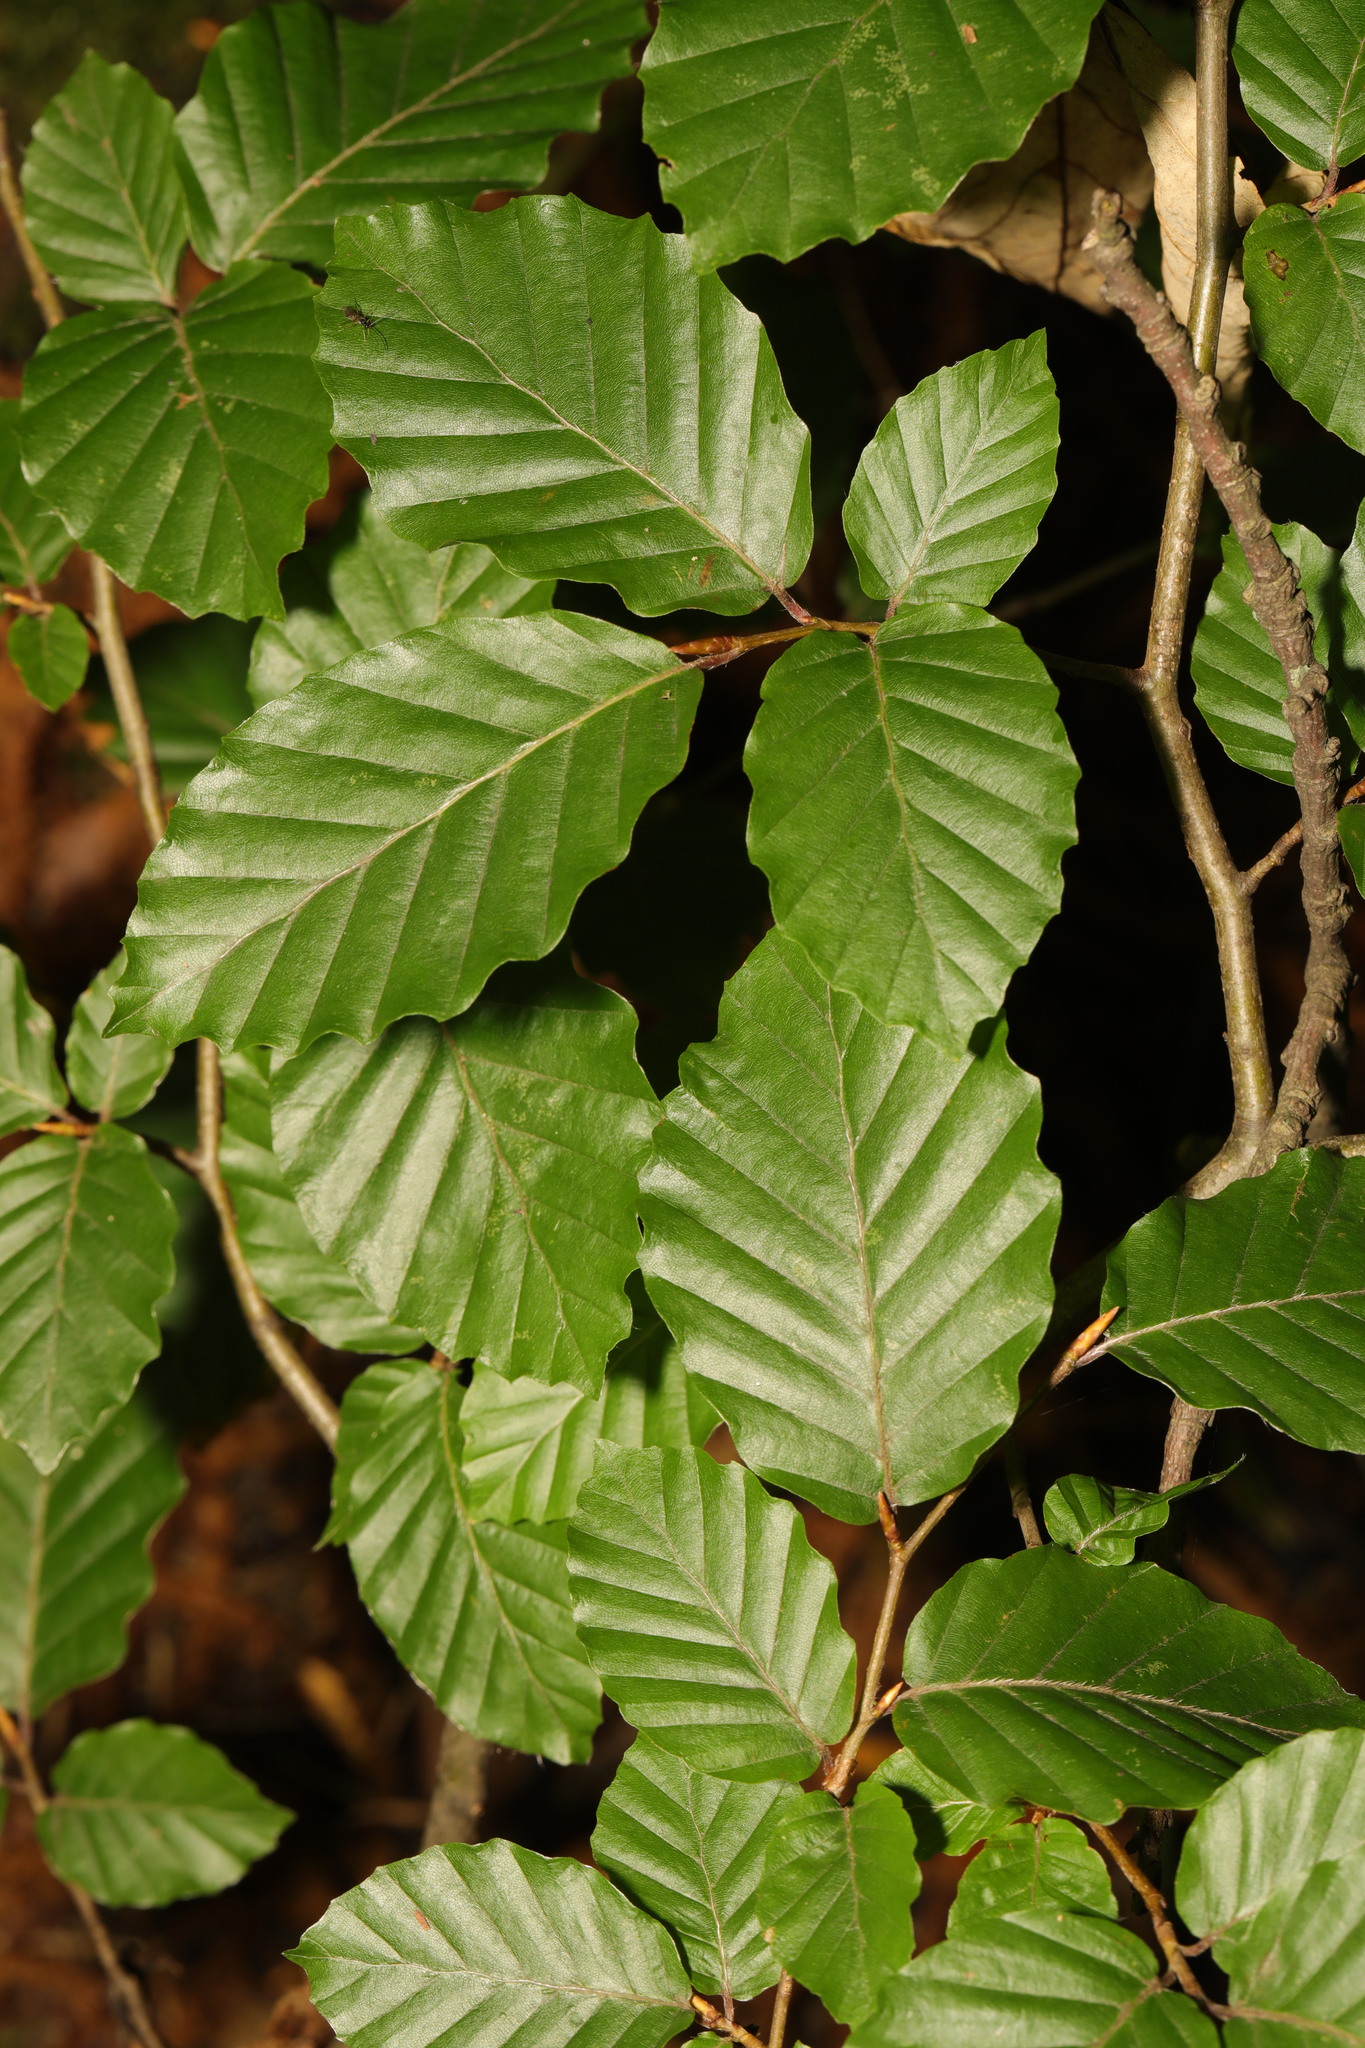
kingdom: Plantae
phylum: Tracheophyta
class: Magnoliopsida
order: Fagales
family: Fagaceae
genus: Fagus
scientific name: Fagus sylvatica
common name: Beech
